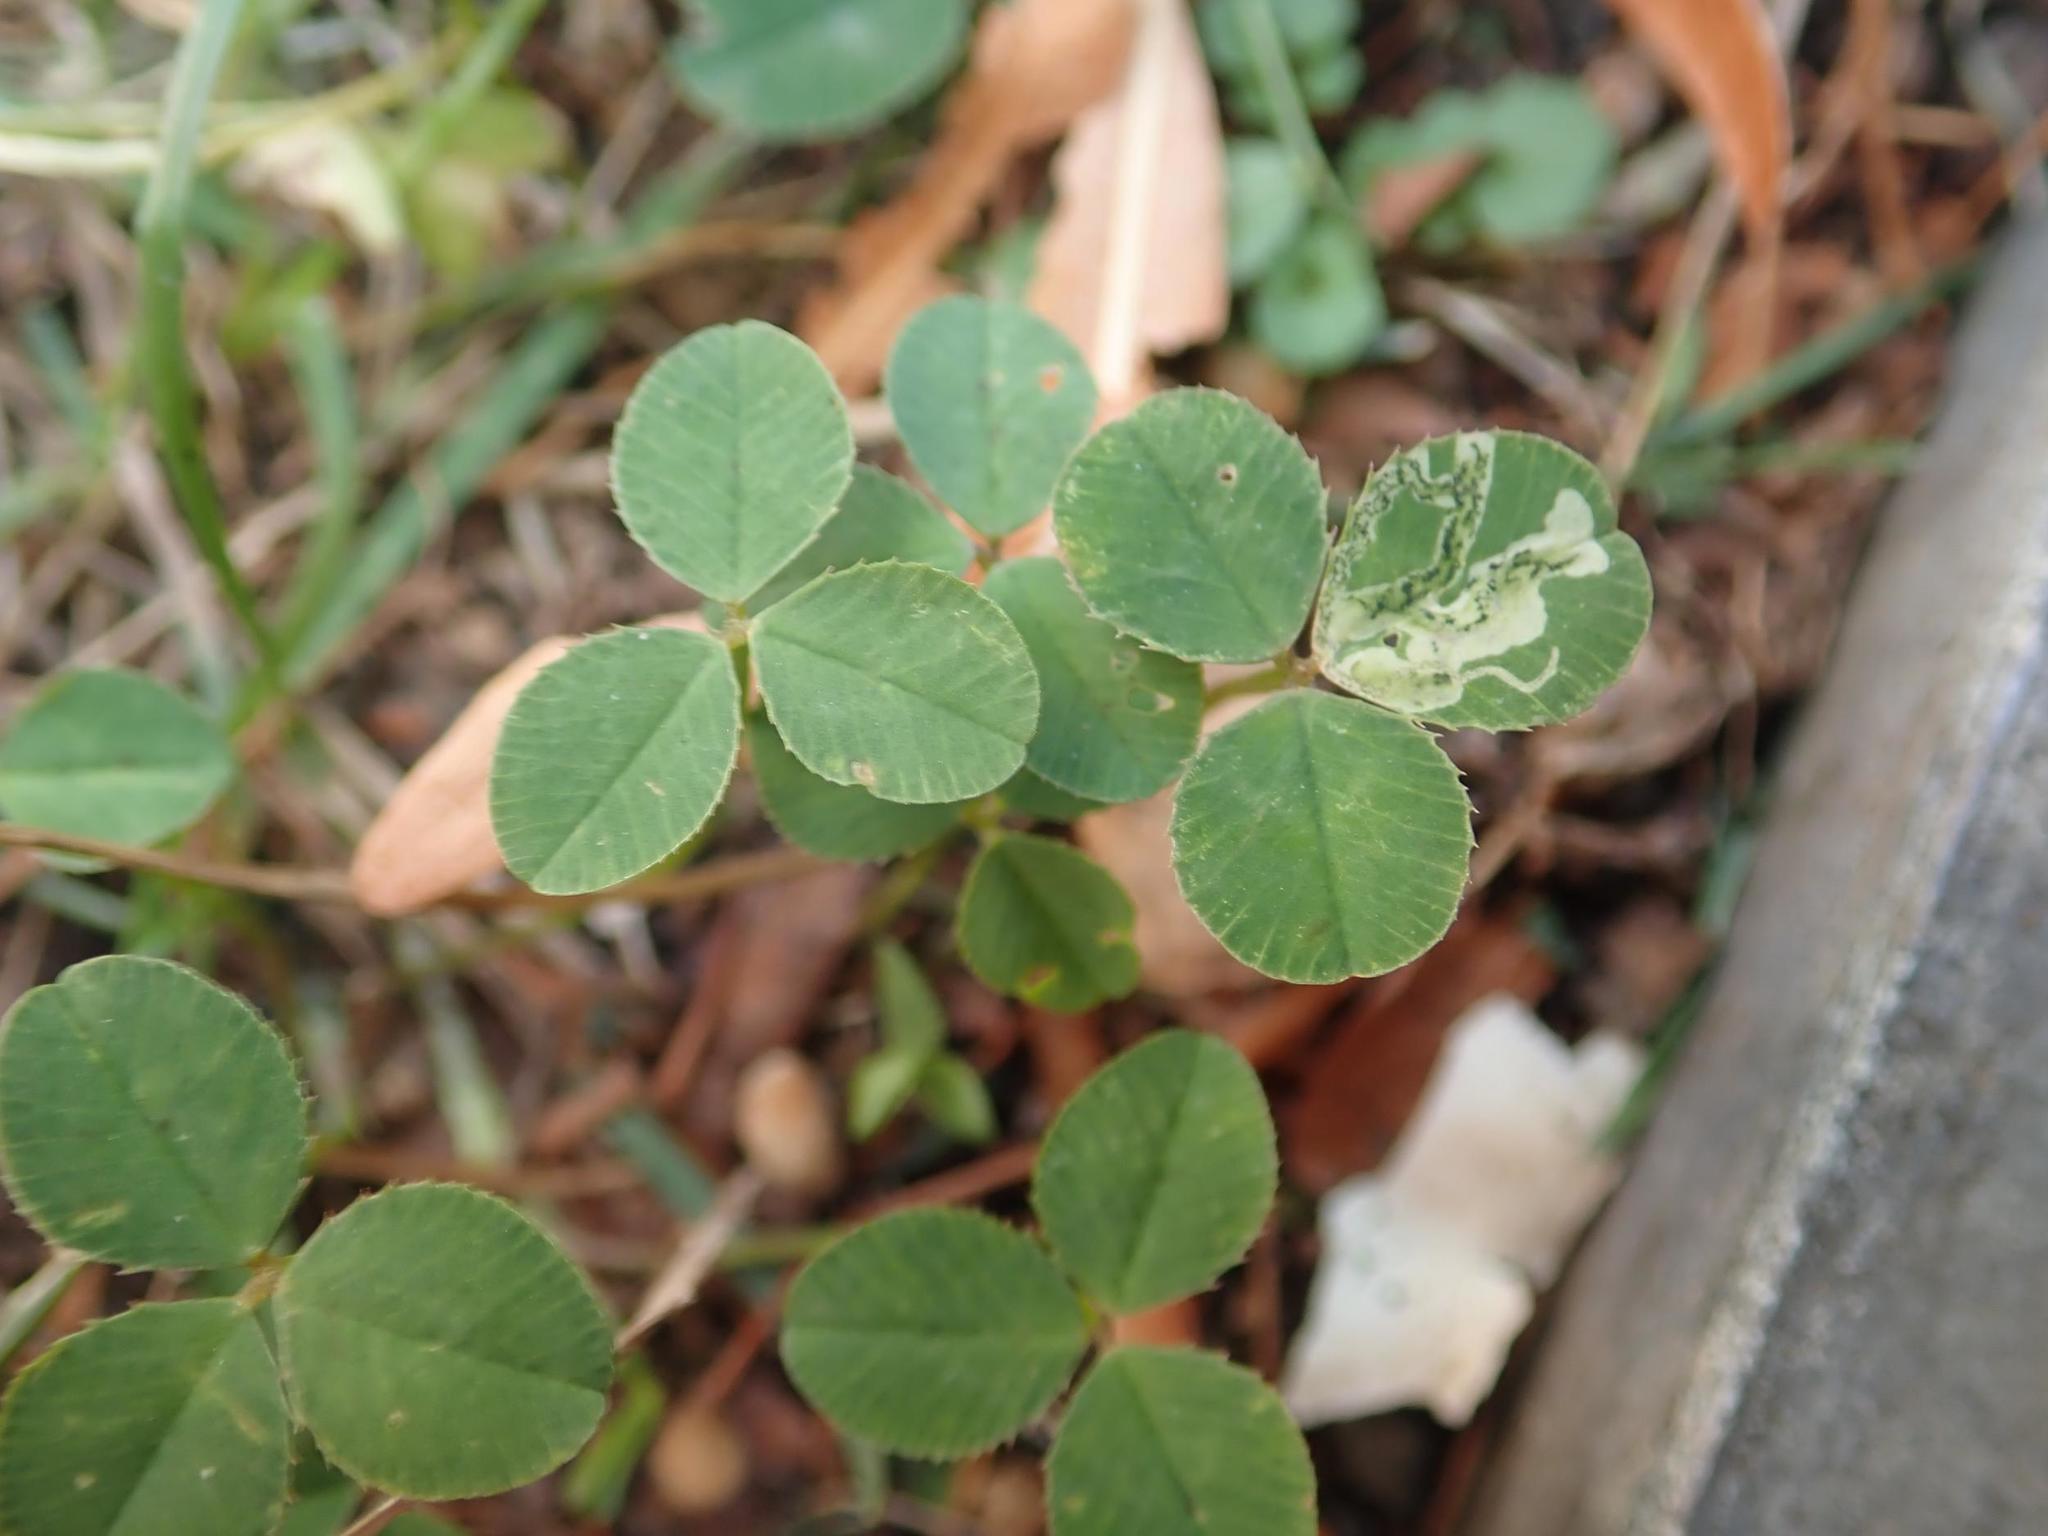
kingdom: Plantae
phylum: Tracheophyta
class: Magnoliopsida
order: Fabales
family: Fabaceae
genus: Trifolium
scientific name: Trifolium repens
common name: White clover
